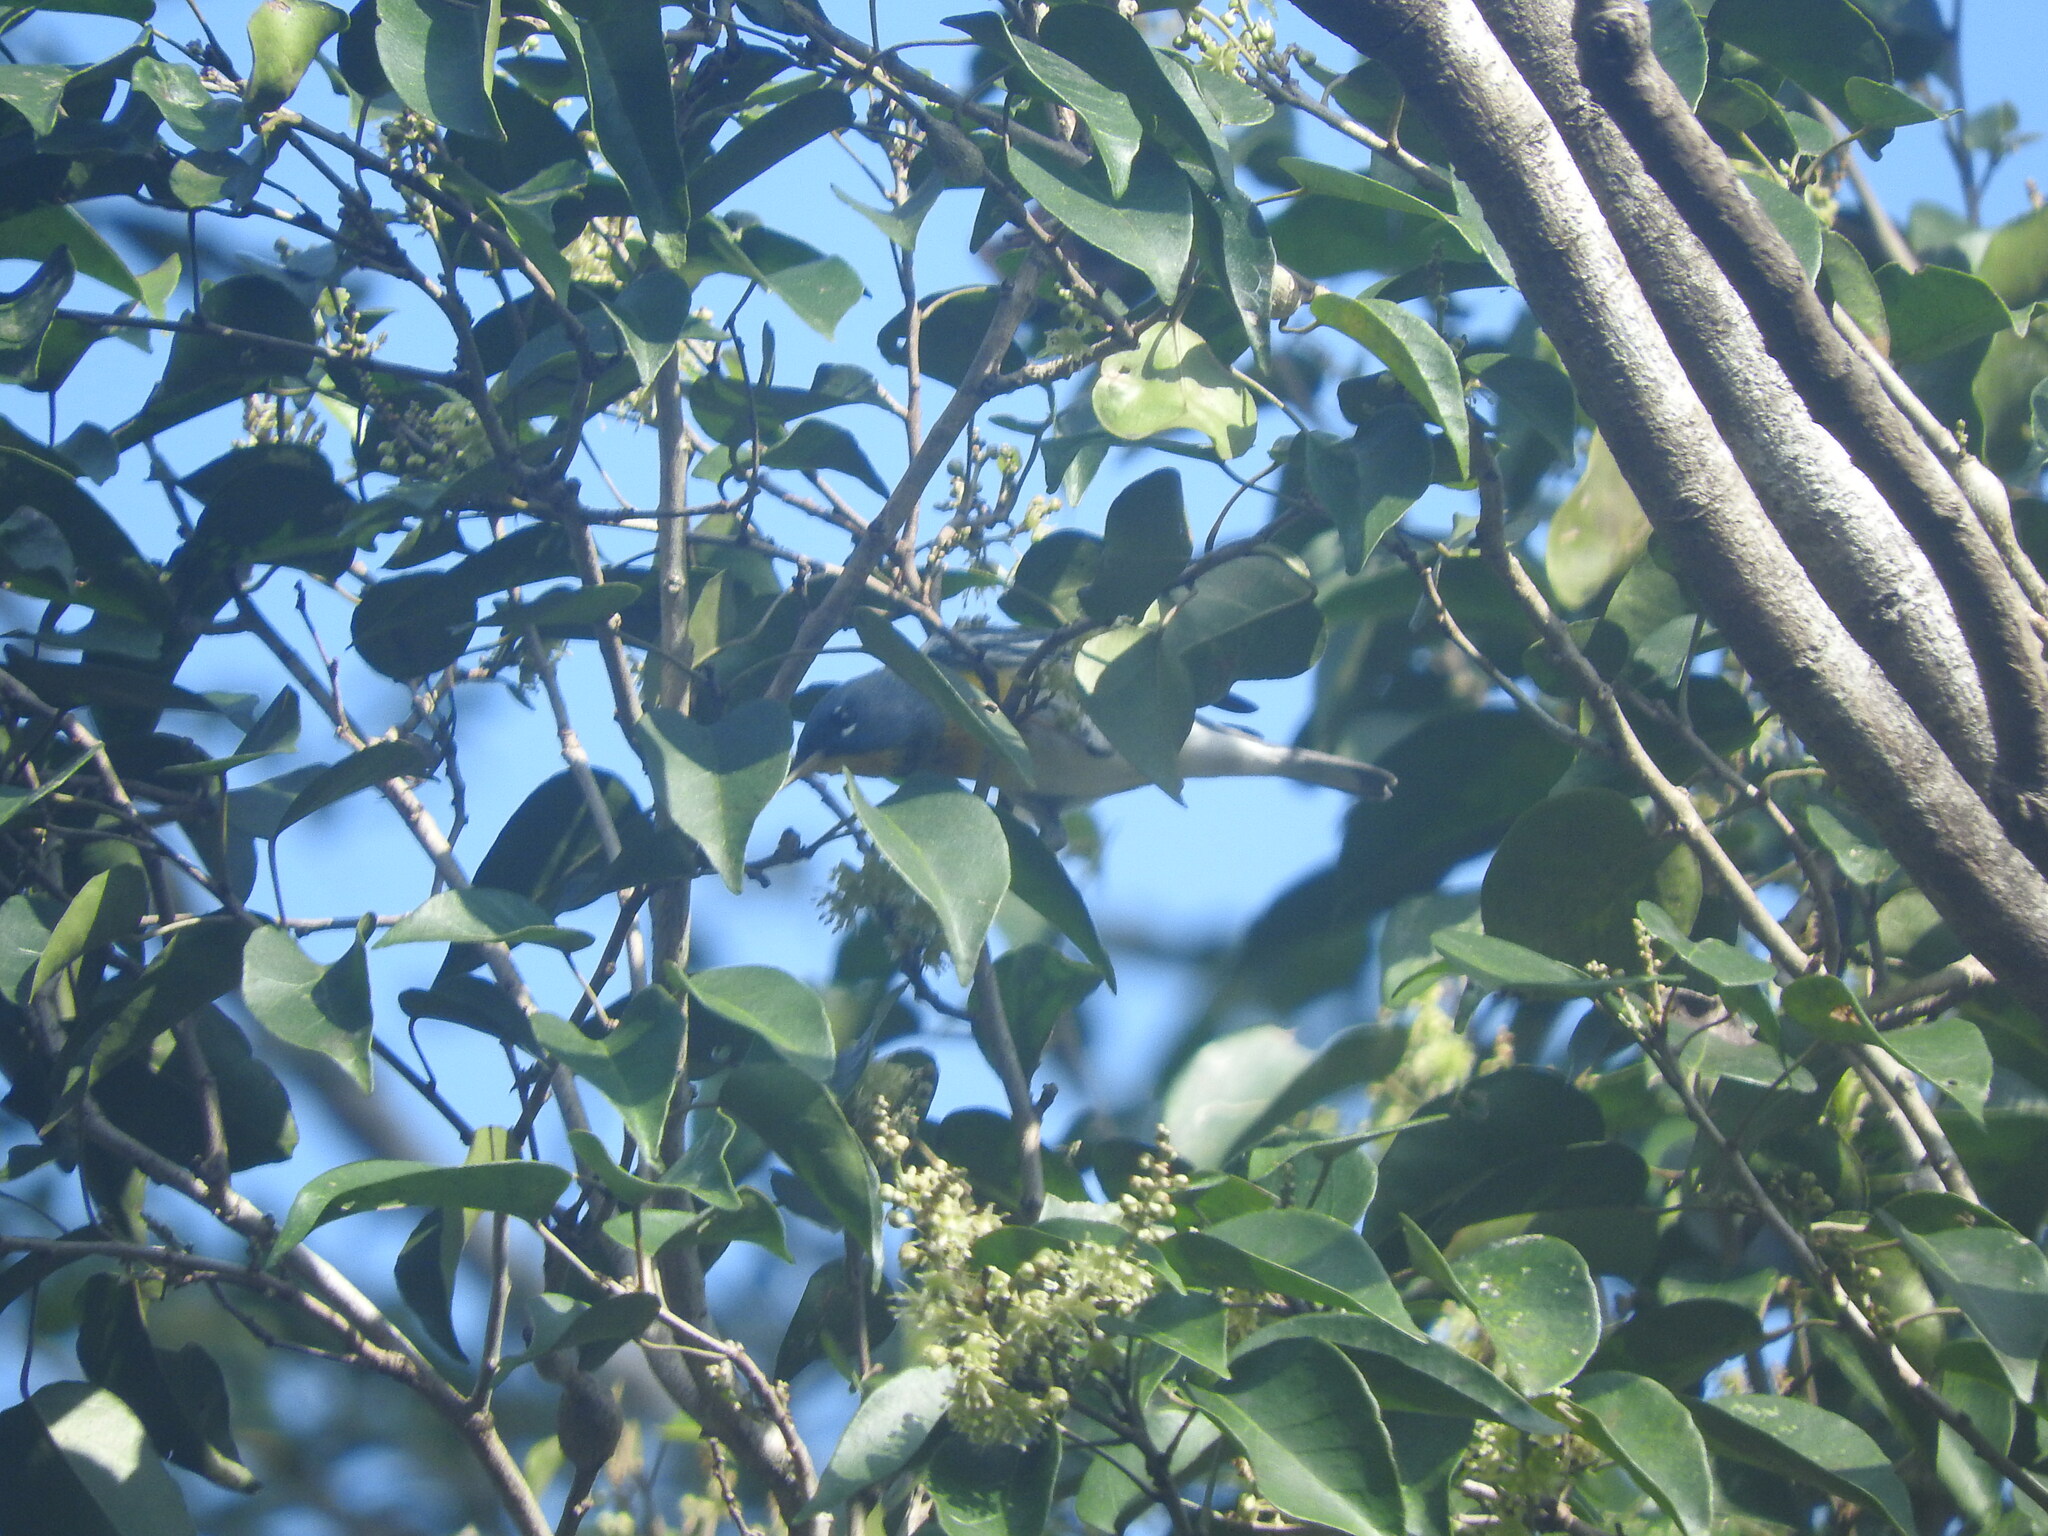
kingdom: Animalia
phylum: Chordata
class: Aves
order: Passeriformes
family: Parulidae
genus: Setophaga
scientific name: Setophaga americana
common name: Northern parula
